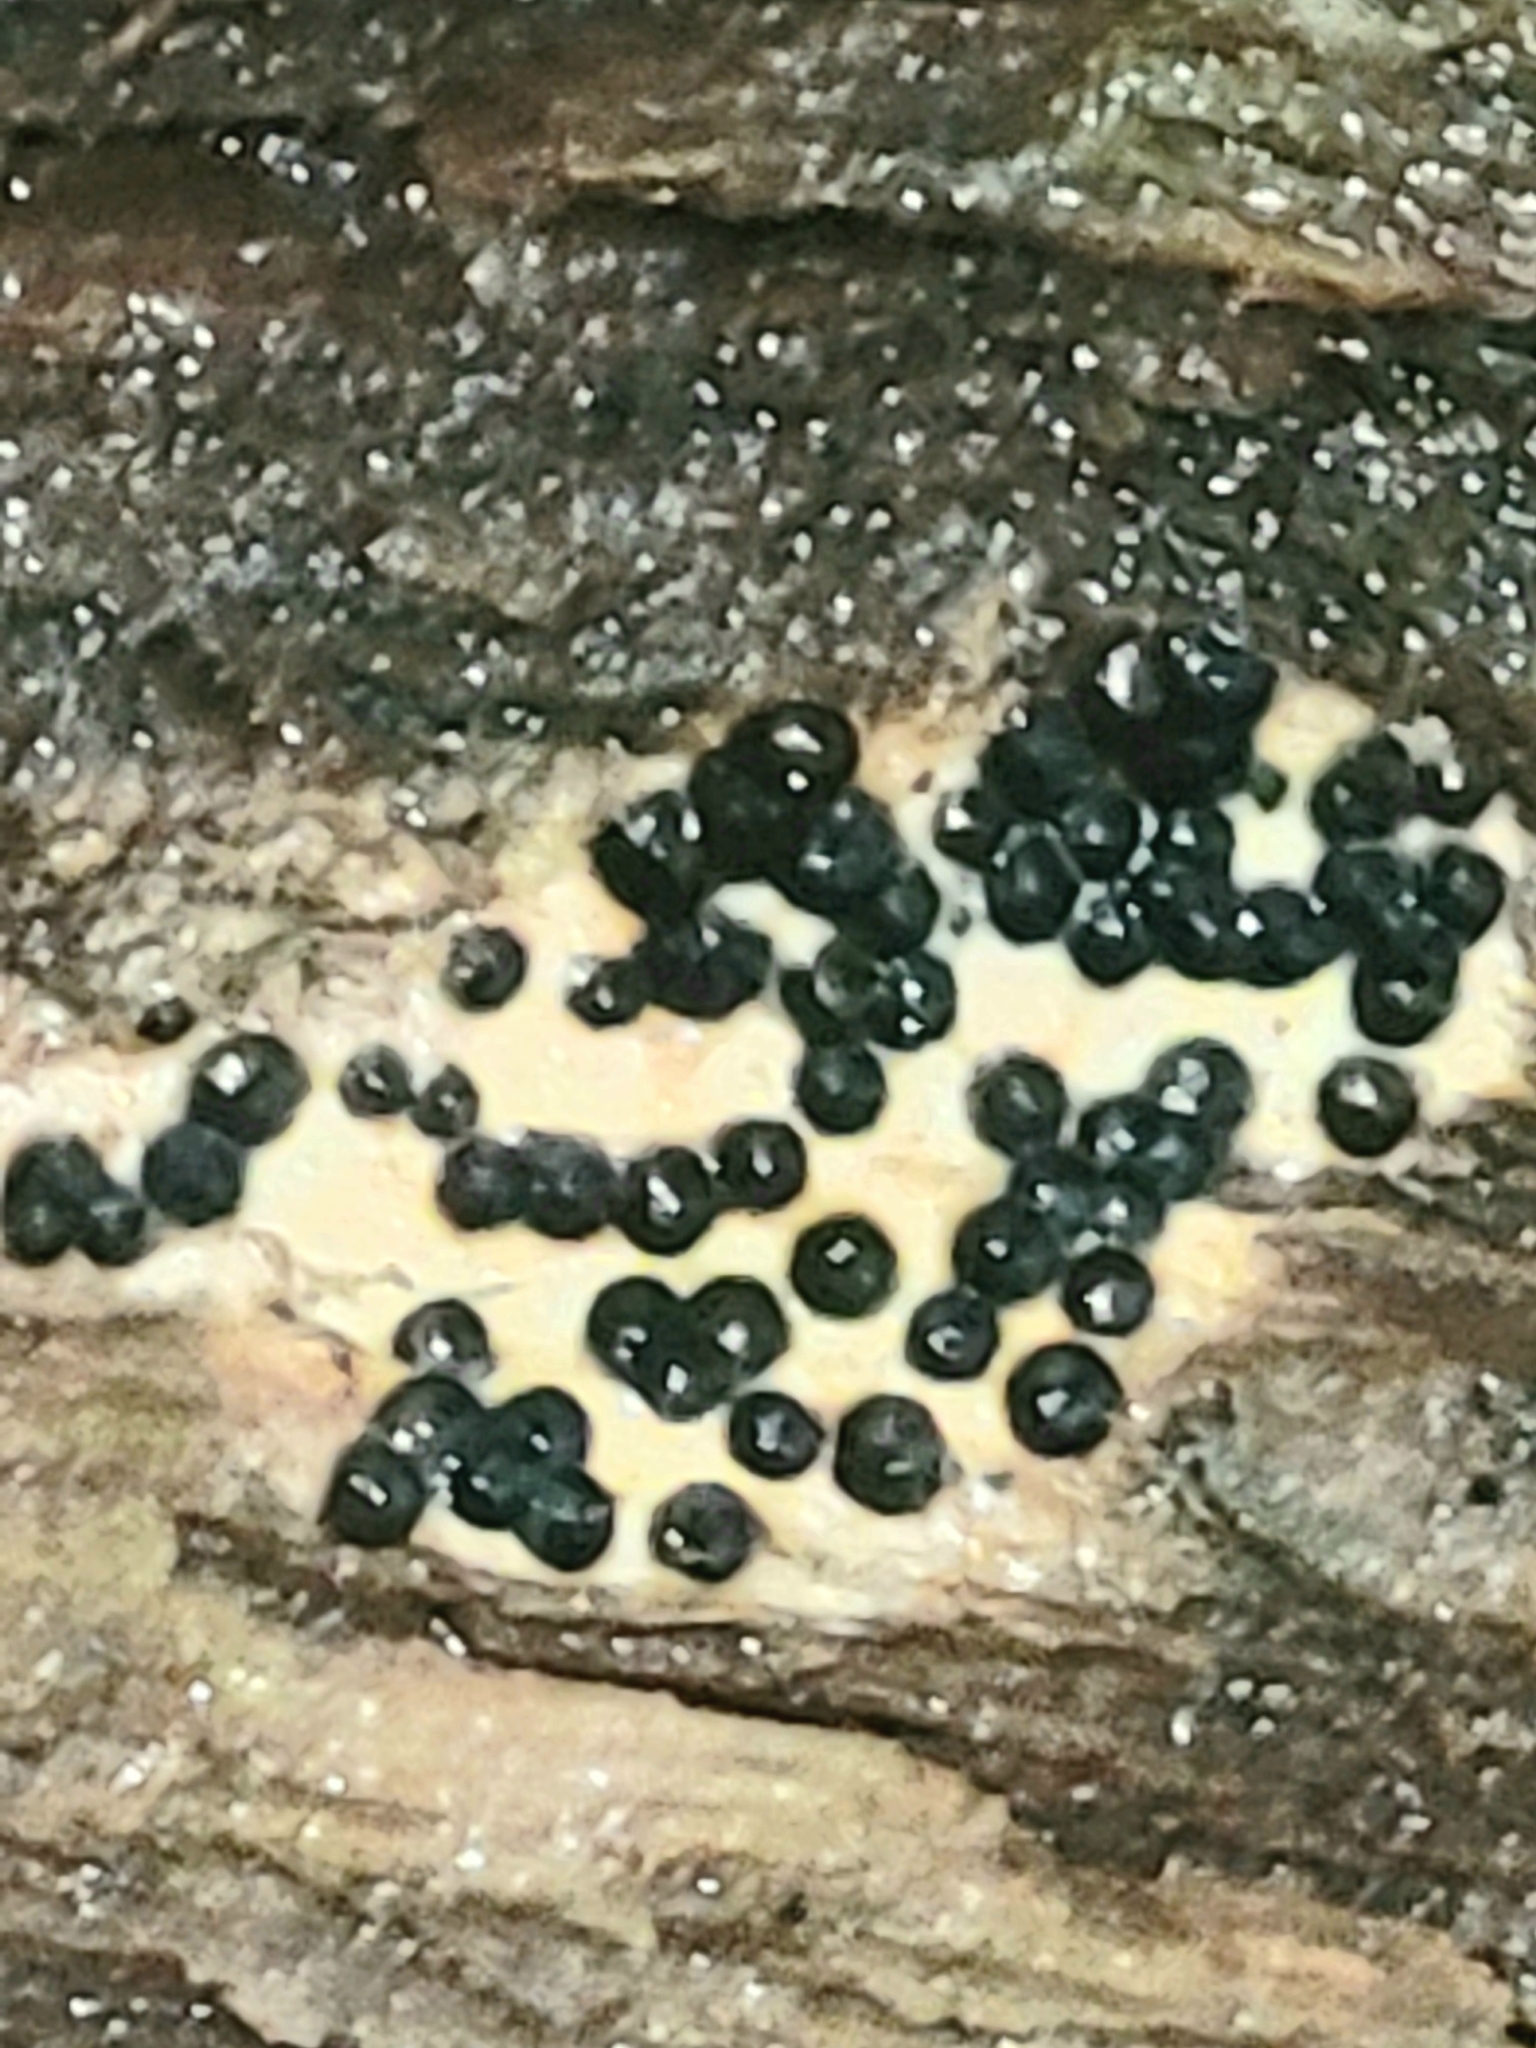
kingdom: Fungi
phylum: Ascomycota
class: Sordariomycetes
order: Xylariales
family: Xylariaceae
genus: Rosellinia
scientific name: Rosellinia subiculata
